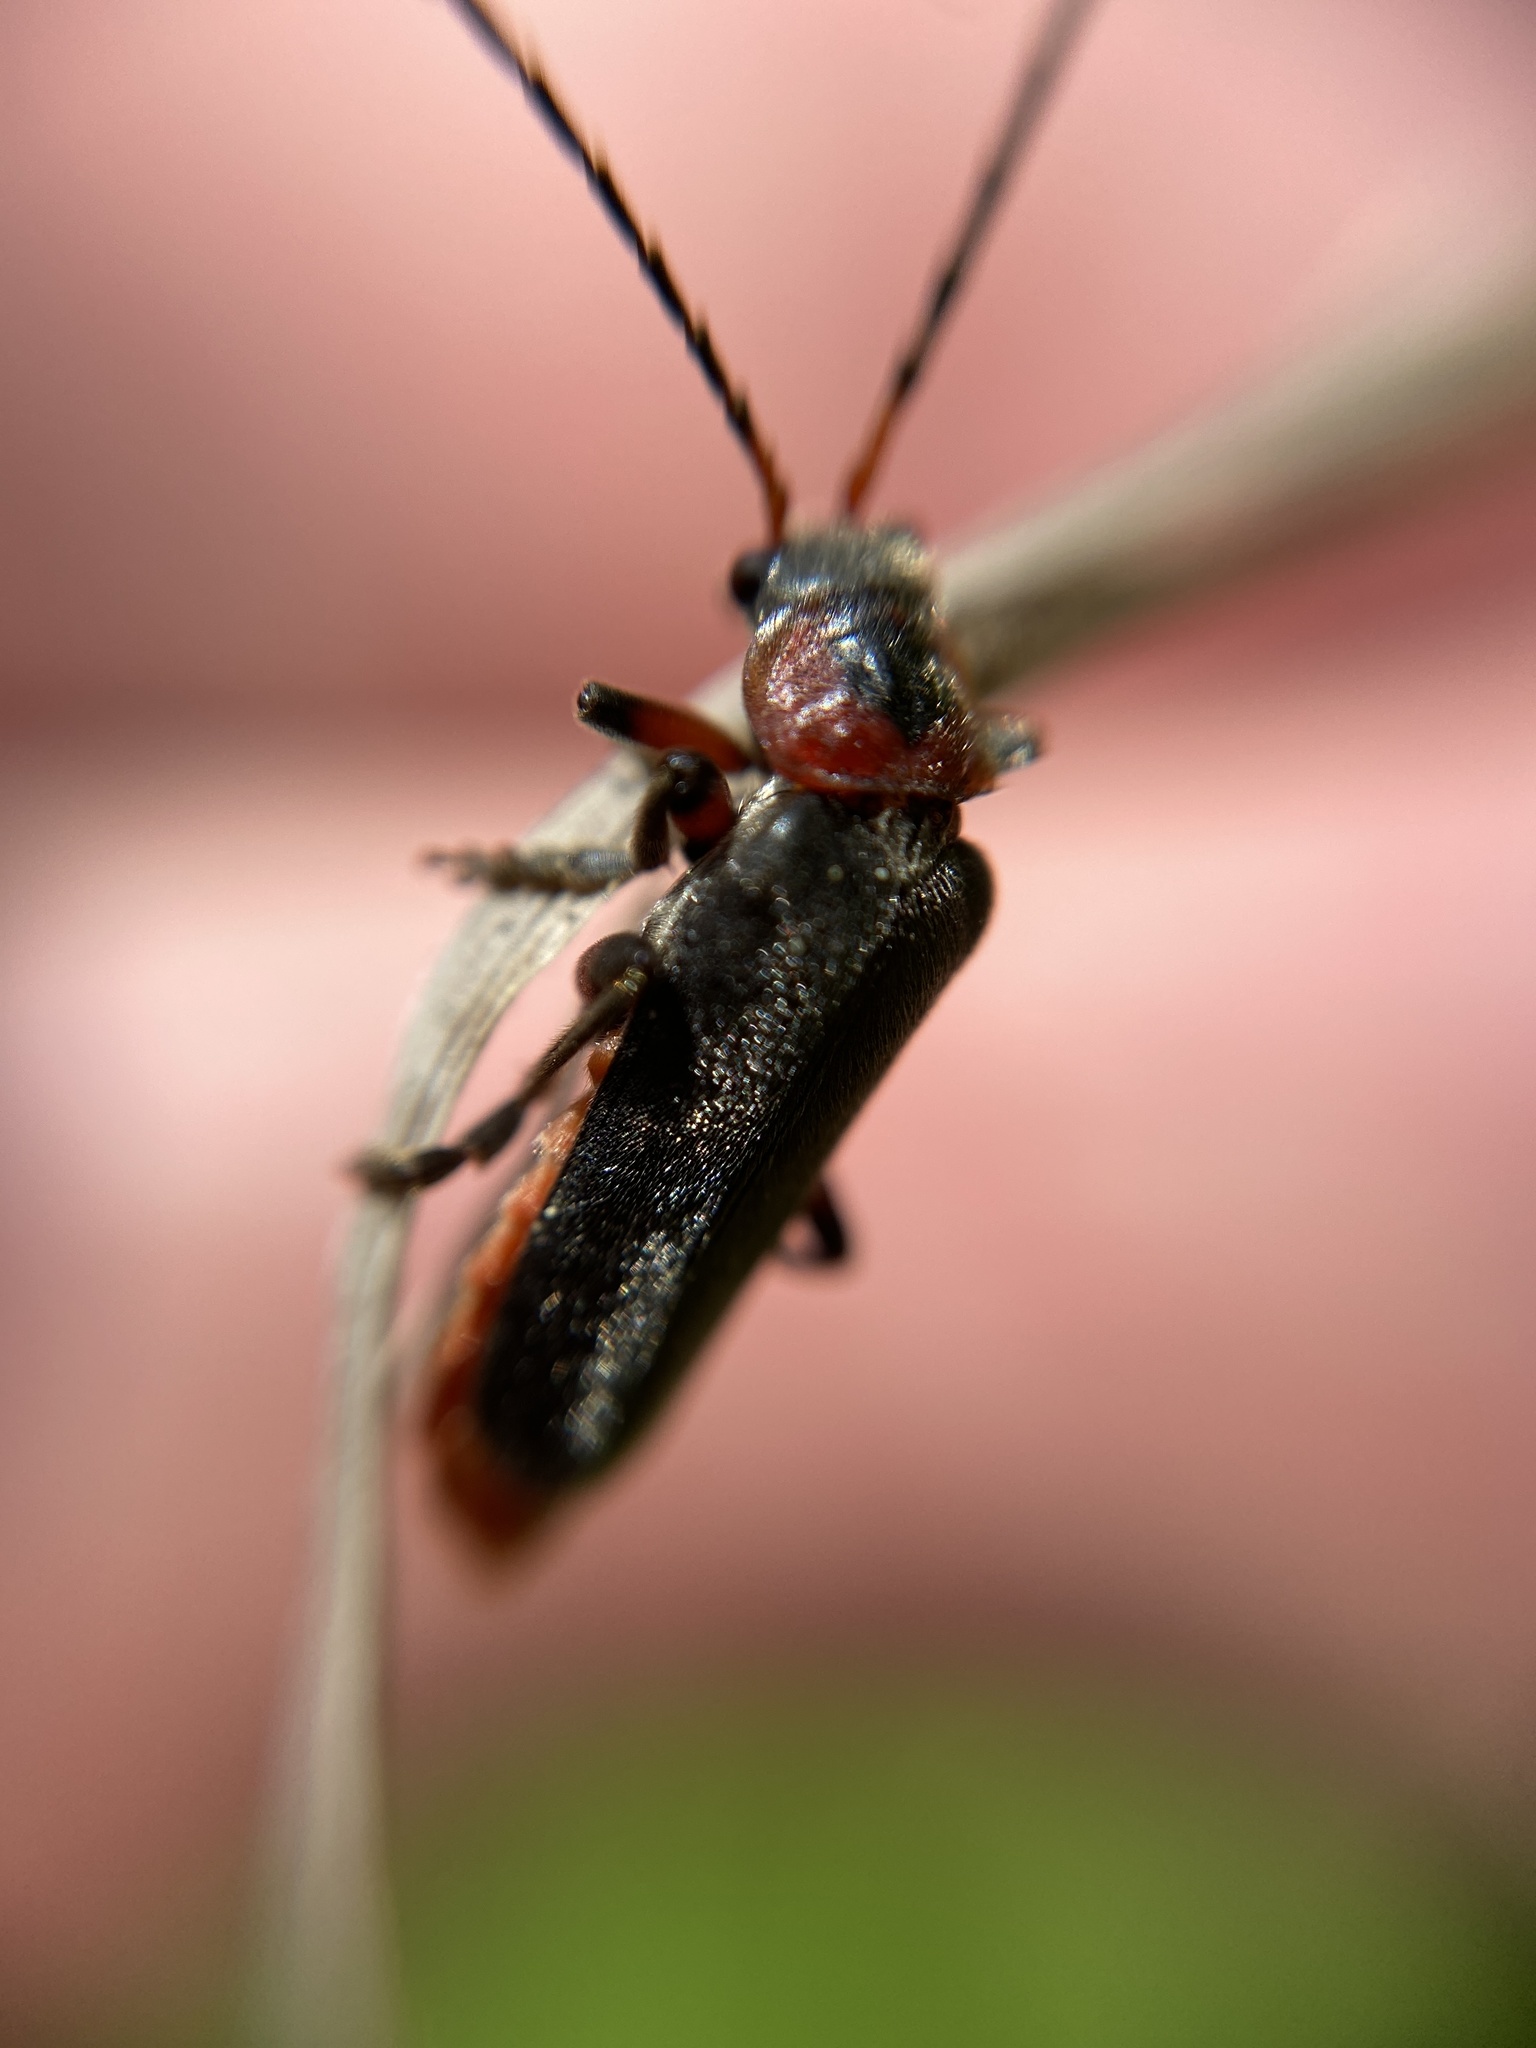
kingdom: Animalia
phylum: Arthropoda
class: Insecta
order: Coleoptera
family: Cantharidae
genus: Cantharis
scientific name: Cantharis rustica
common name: Soldier beetle
